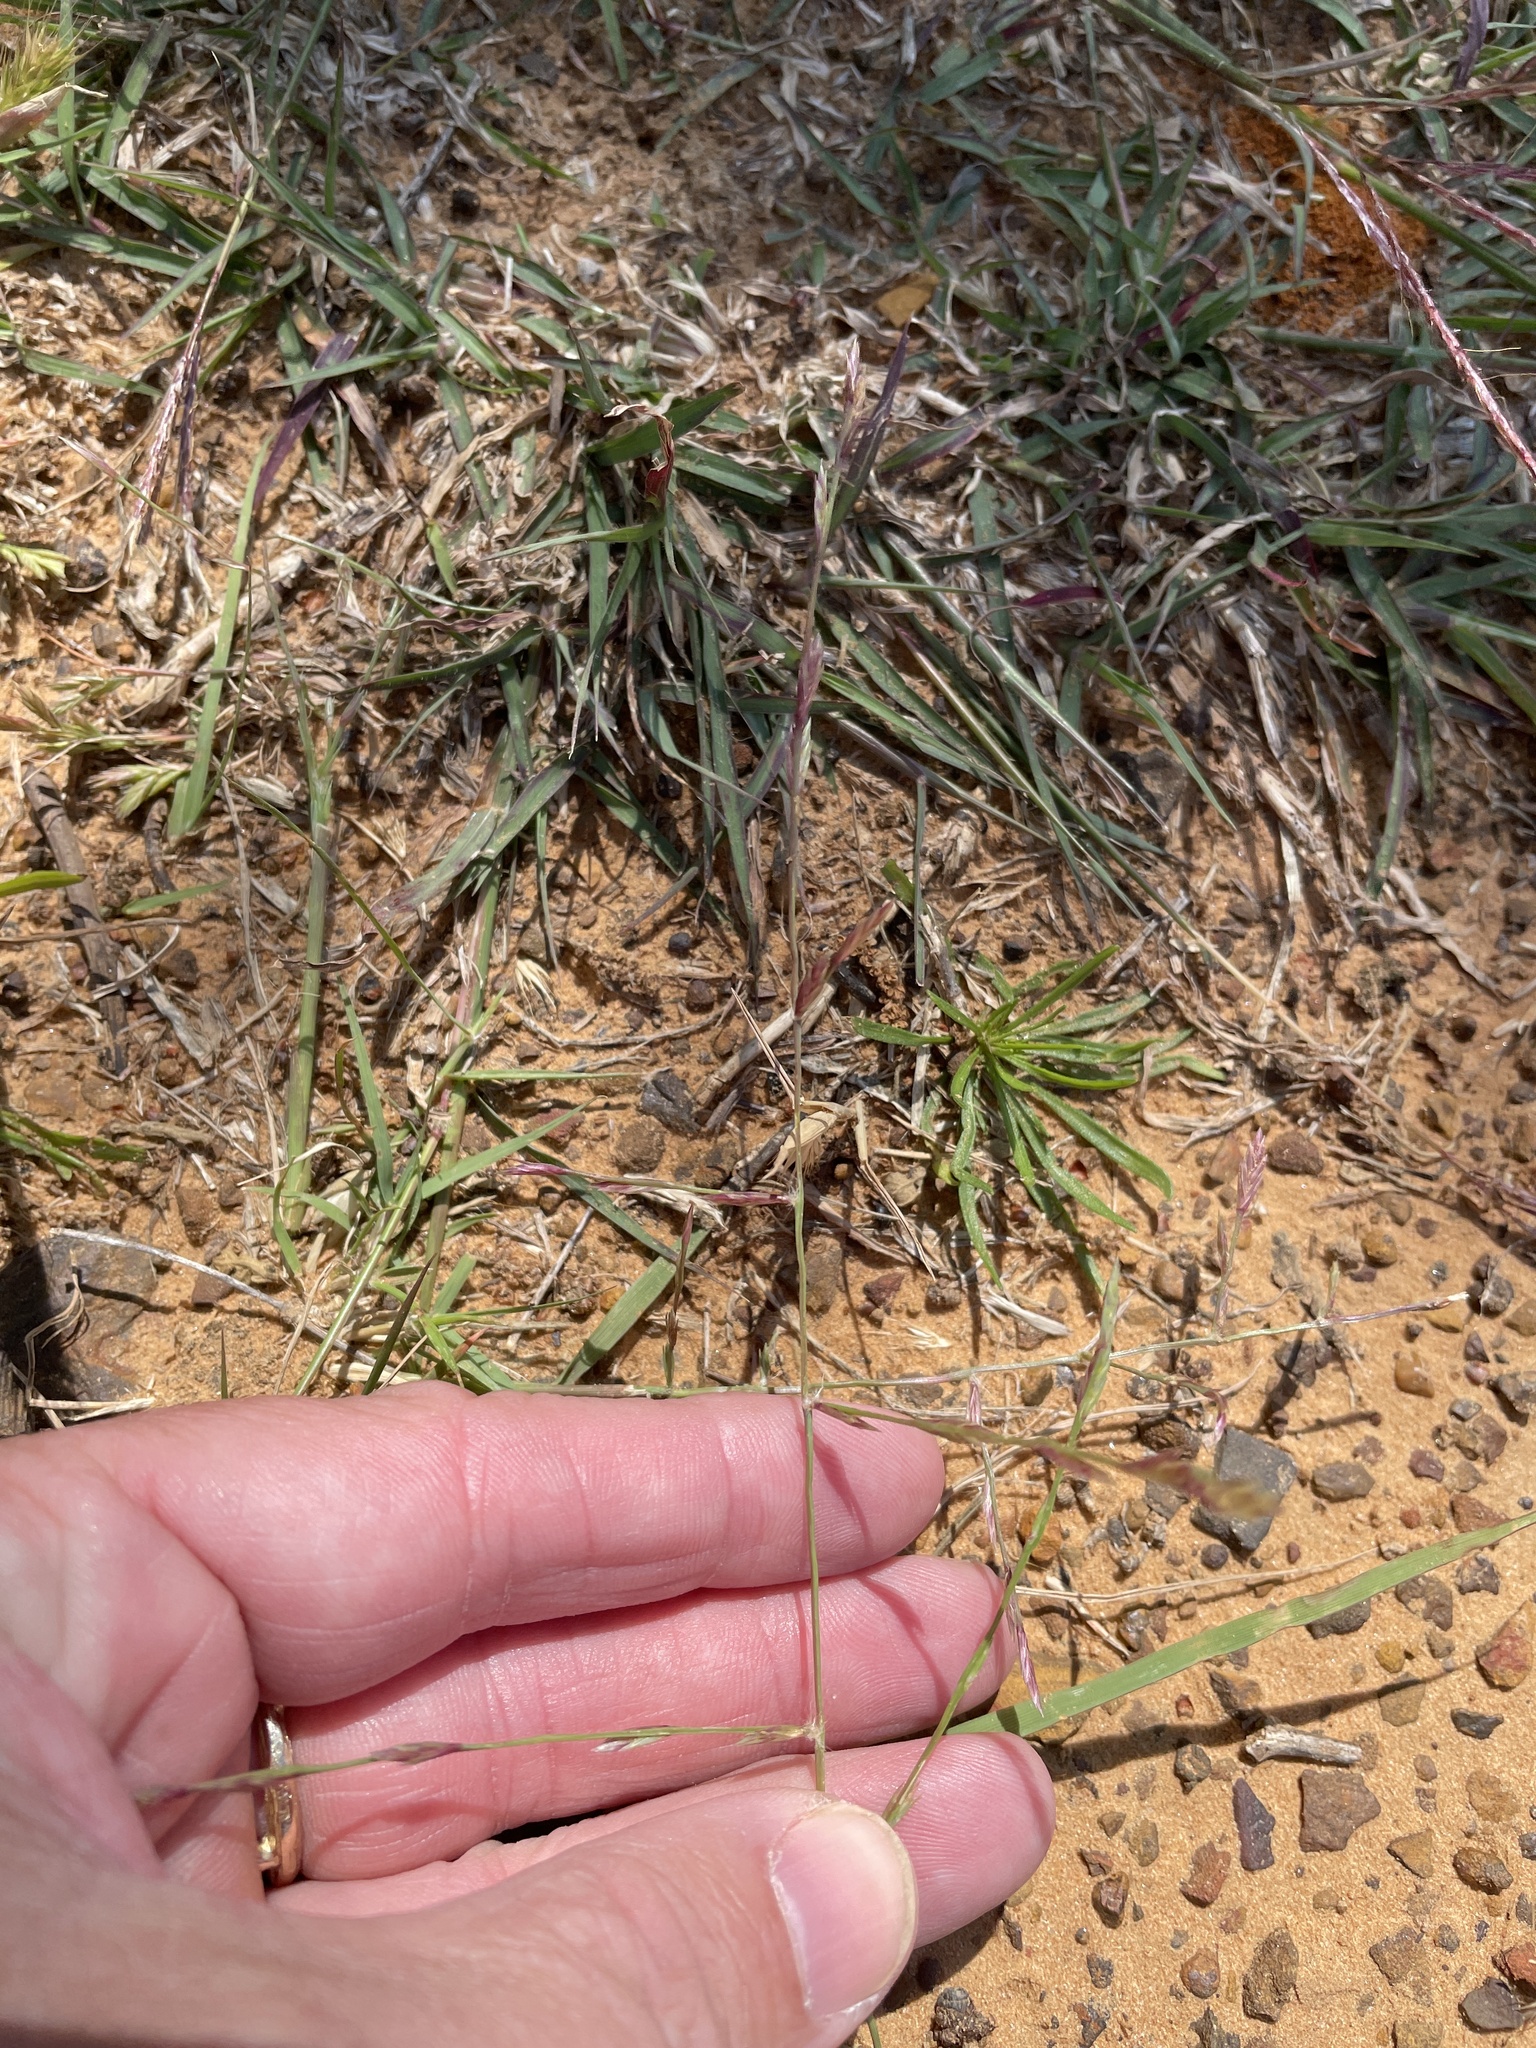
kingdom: Plantae
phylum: Tracheophyta
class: Liliopsida
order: Poales
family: Poaceae
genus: Eragrostis
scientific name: Eragrostis sessilispica
